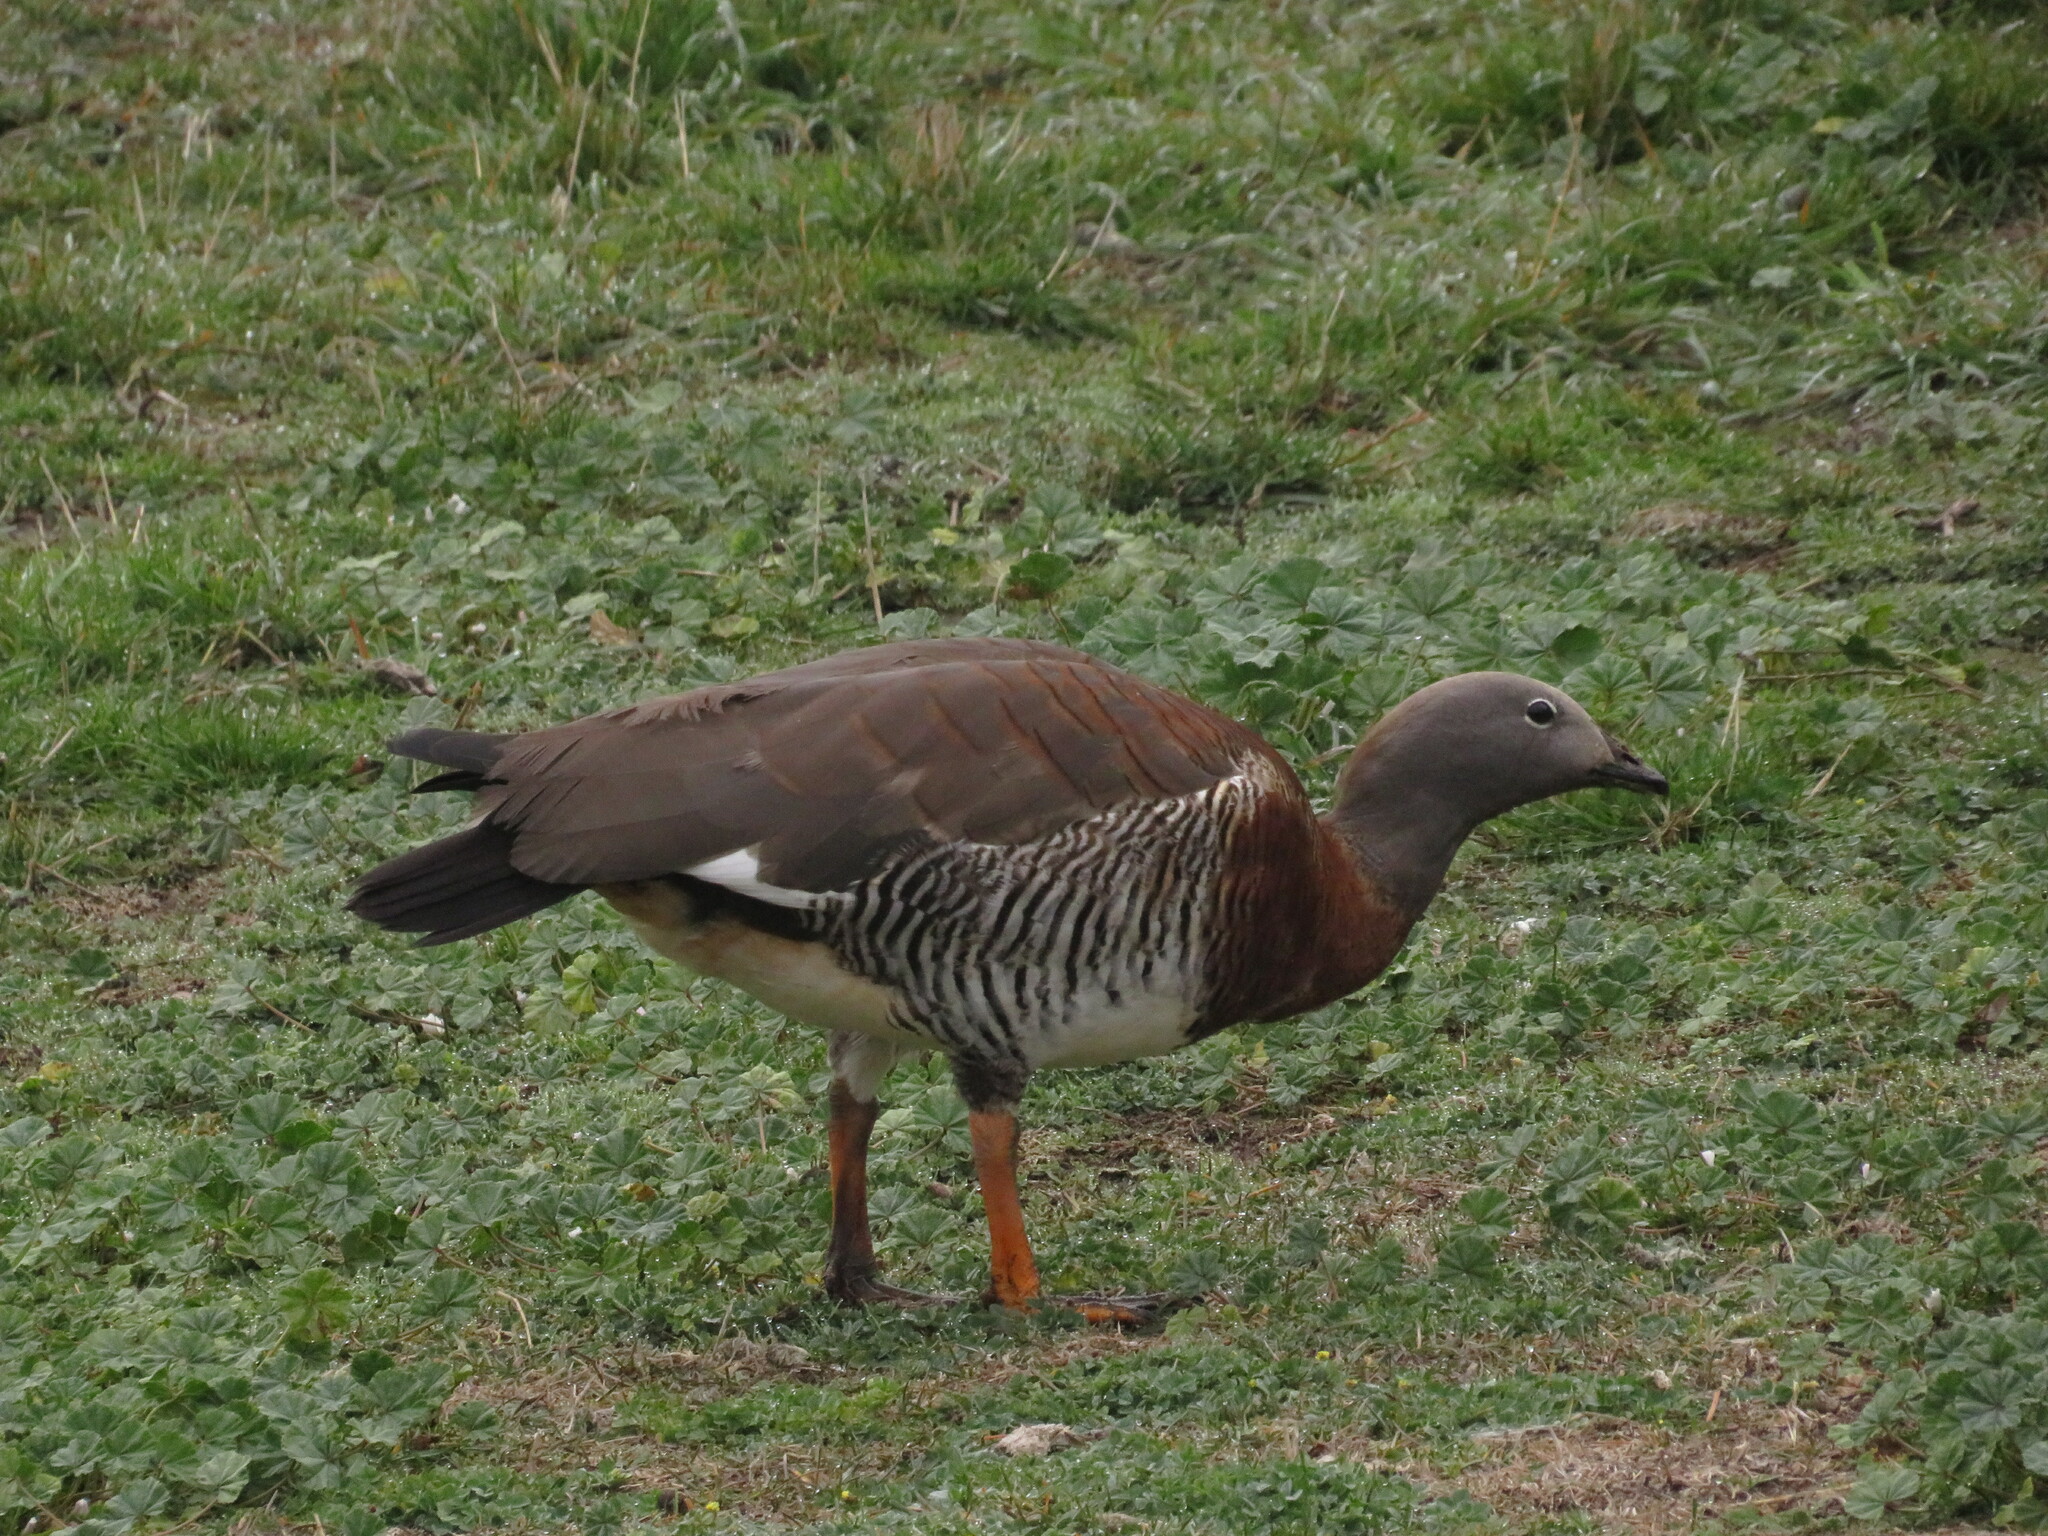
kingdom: Animalia
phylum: Chordata
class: Aves
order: Anseriformes
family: Anatidae
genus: Chloephaga
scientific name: Chloephaga poliocephala
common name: Ashy-headed goose
